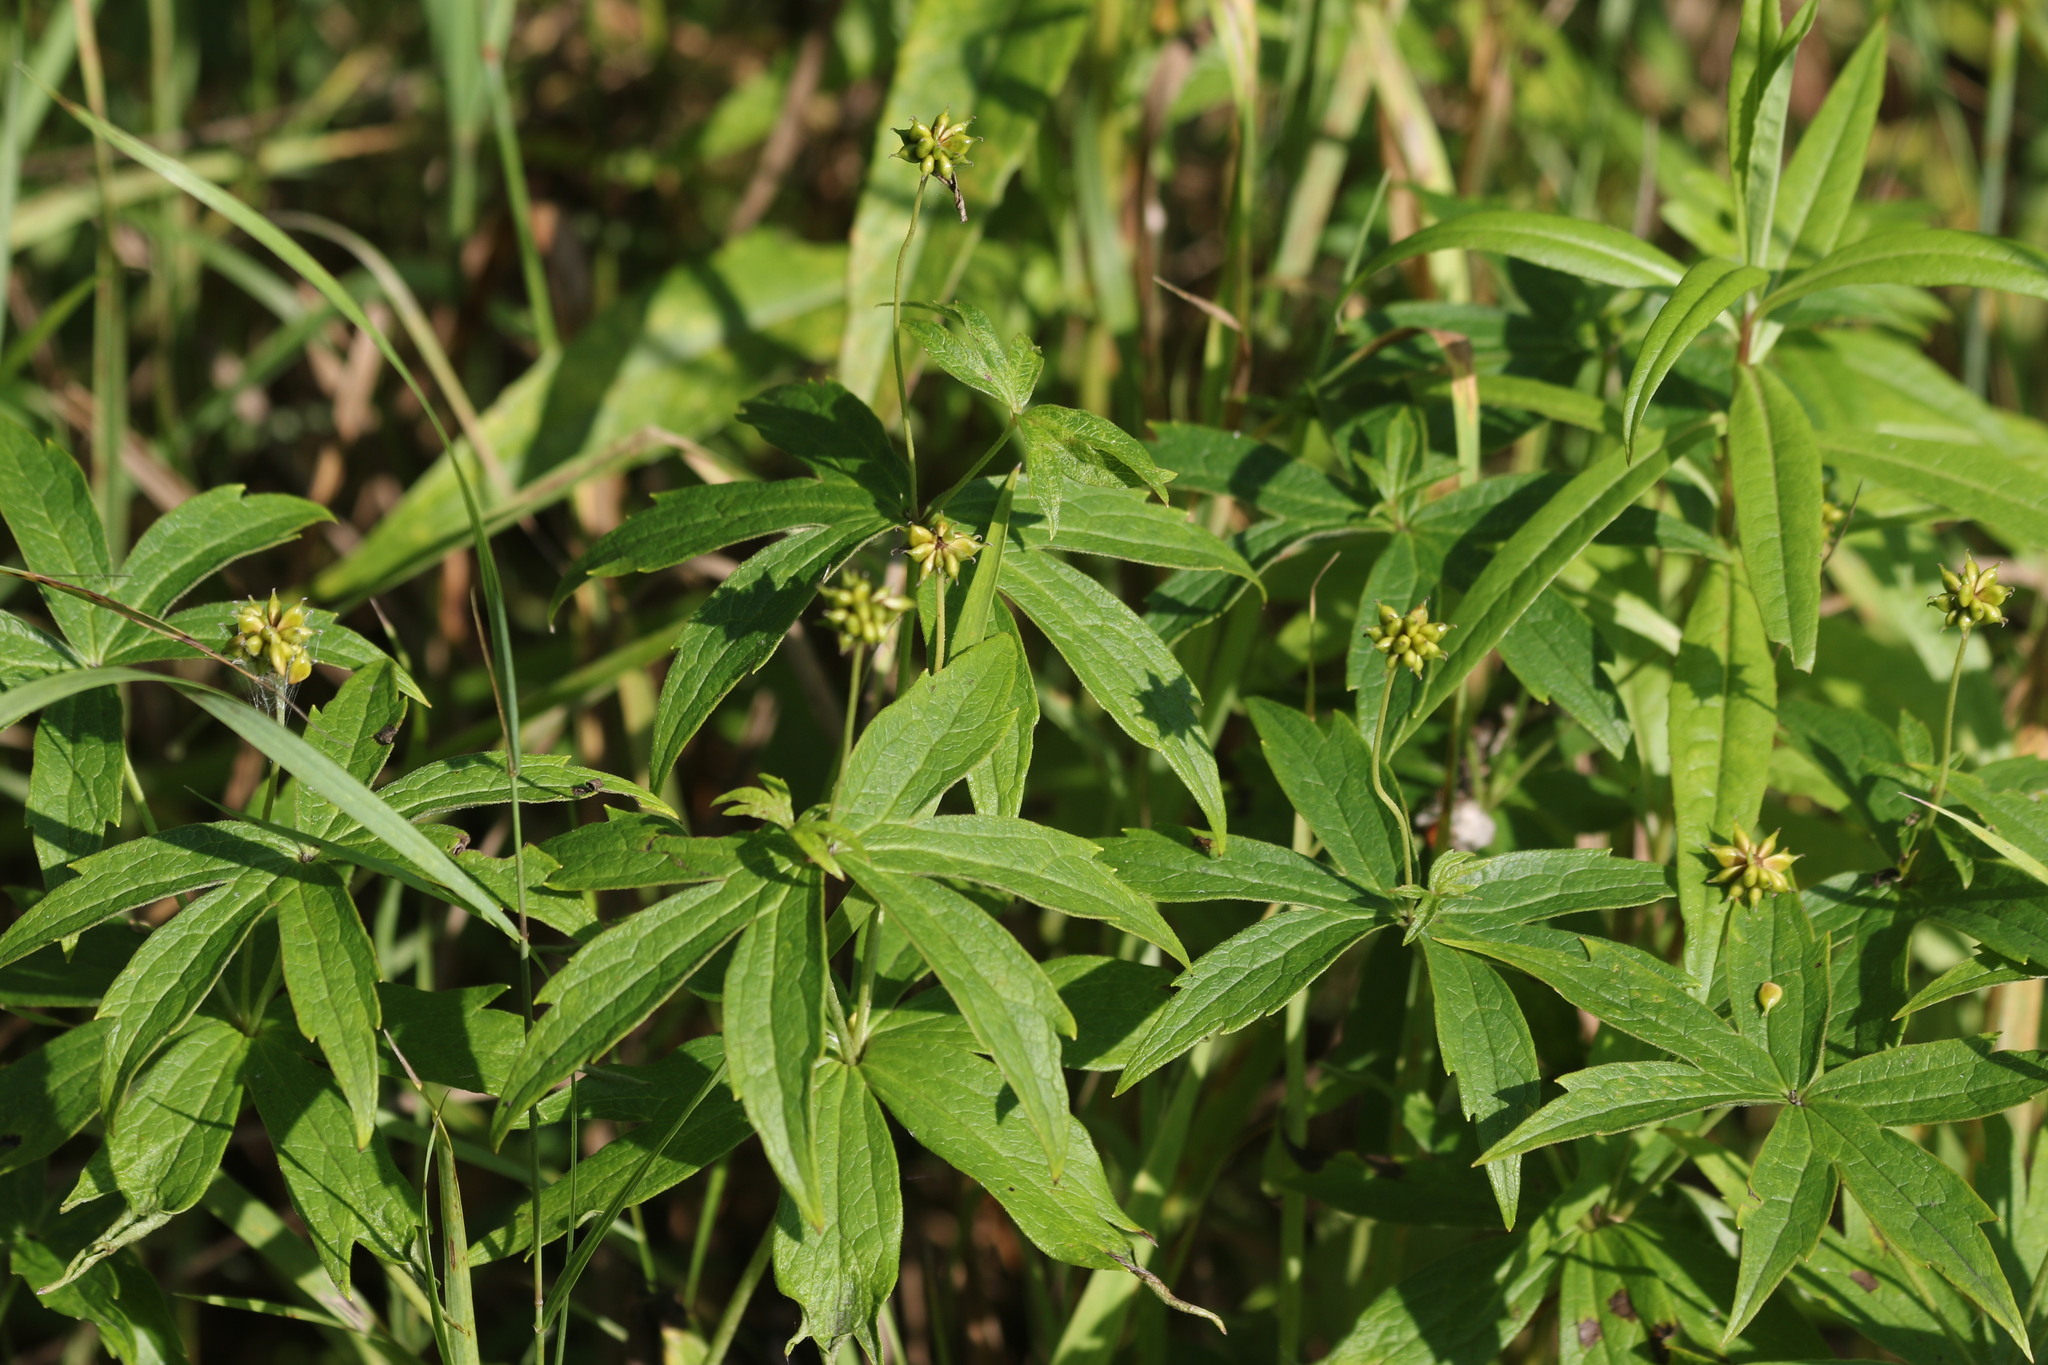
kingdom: Plantae
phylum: Tracheophyta
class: Magnoliopsida
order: Ranunculales
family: Ranunculaceae
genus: Anemonastrum
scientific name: Anemonastrum dichotomum
